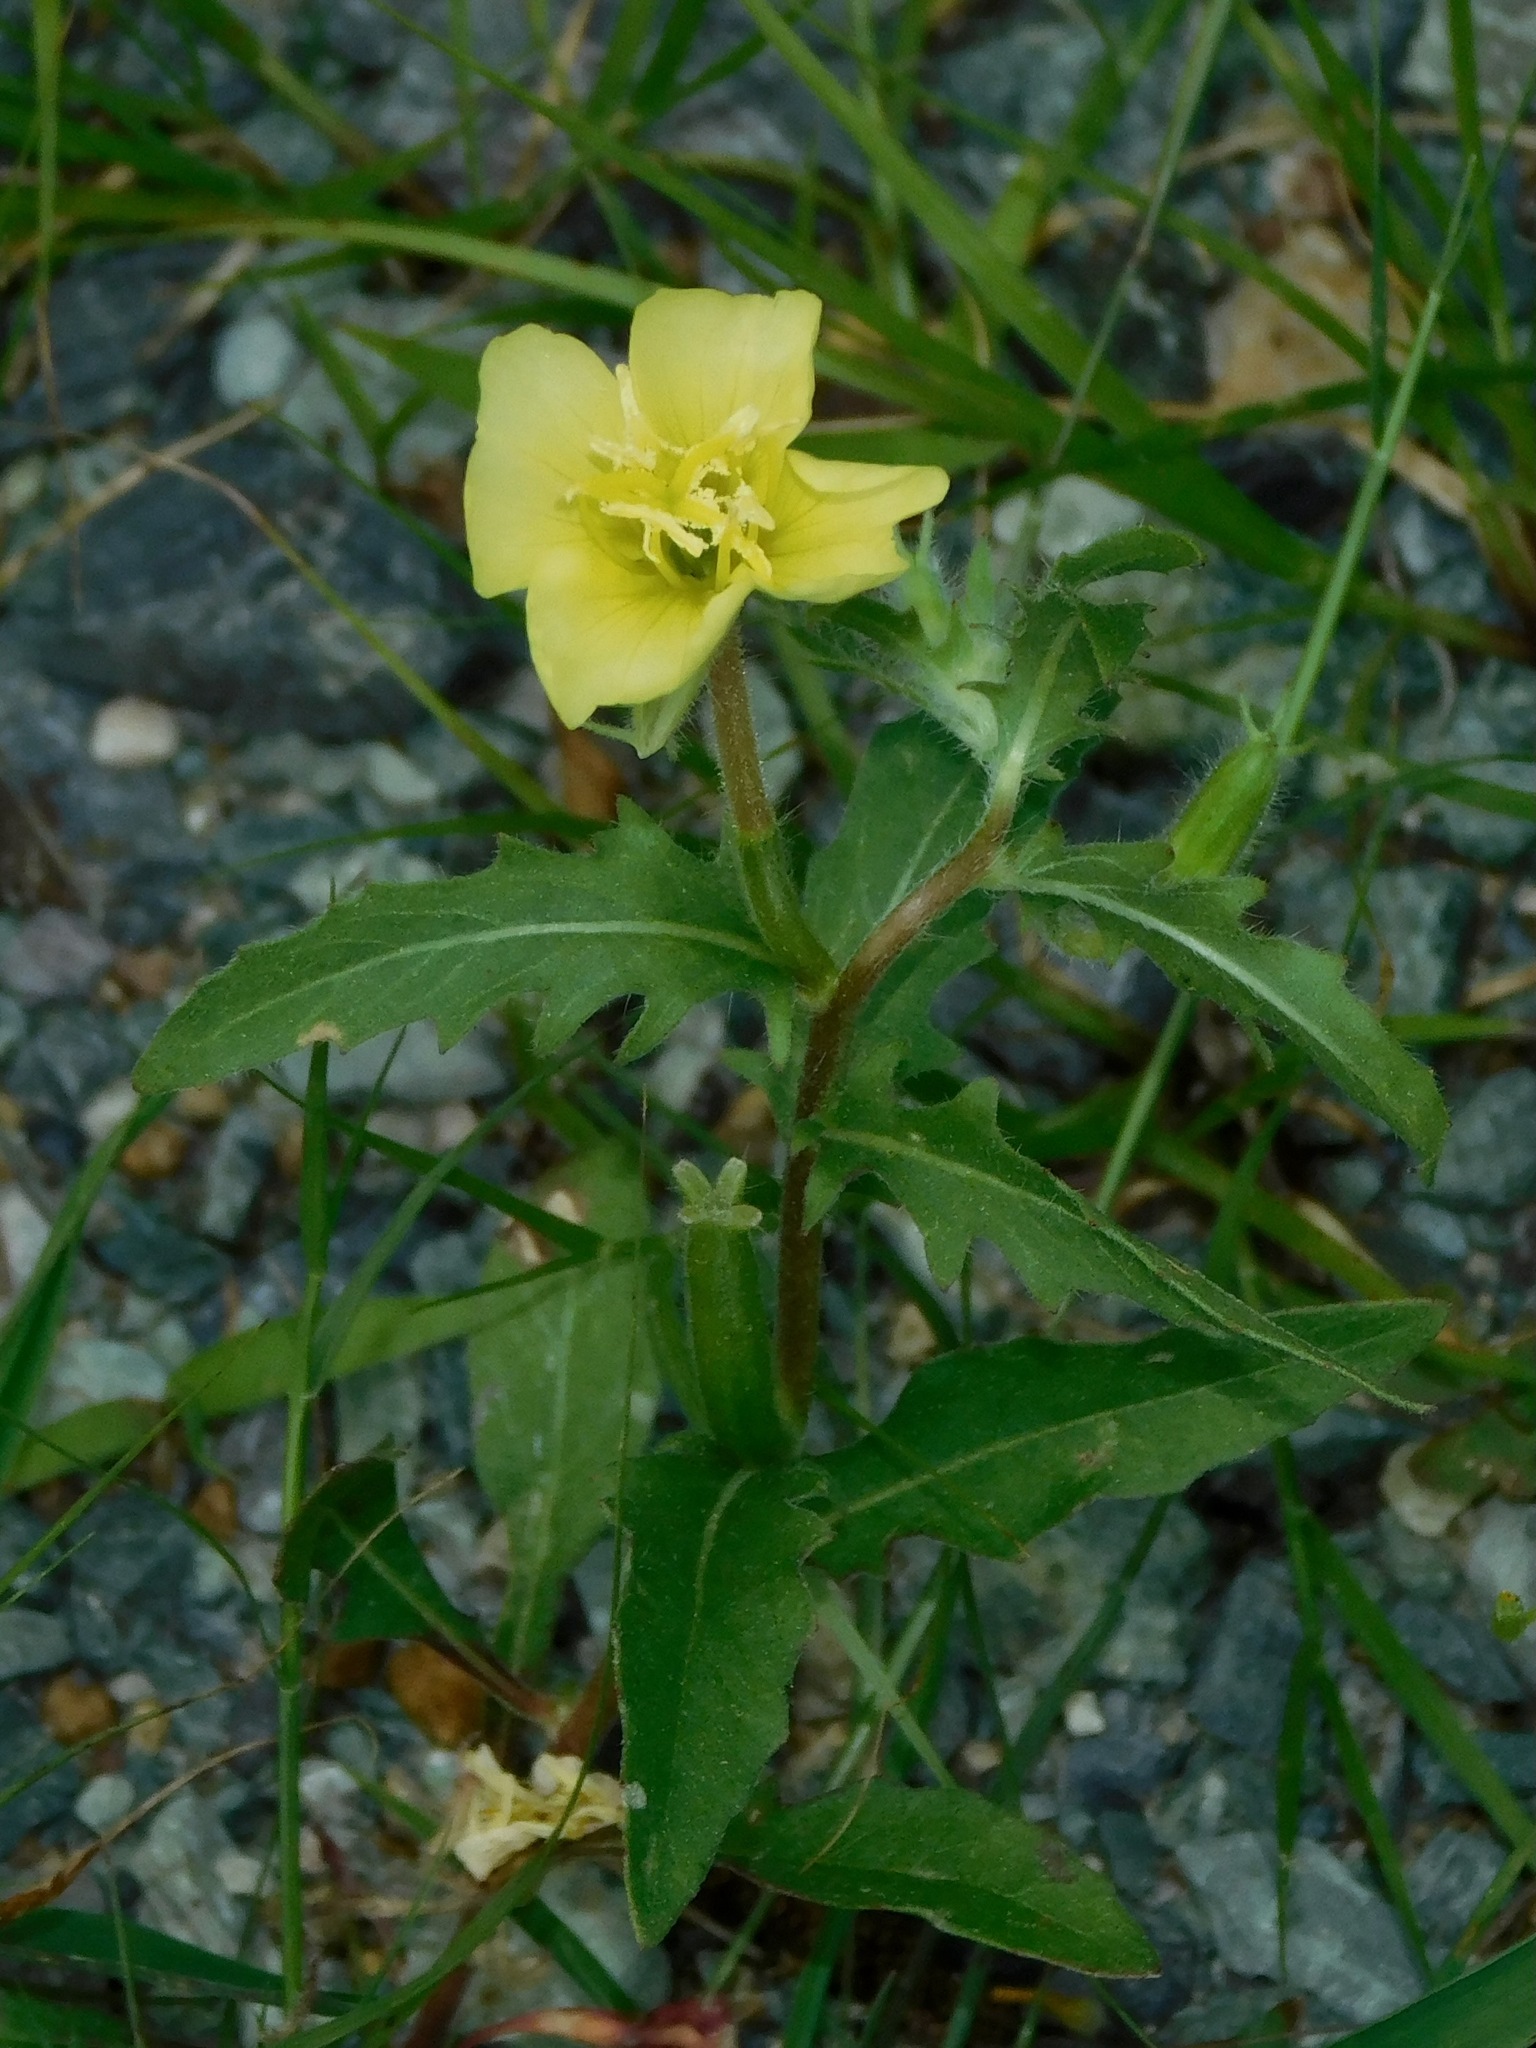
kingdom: Plantae
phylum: Tracheophyta
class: Magnoliopsida
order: Myrtales
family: Onagraceae
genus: Oenothera
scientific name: Oenothera laciniata
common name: Cut-leaved evening-primrose
